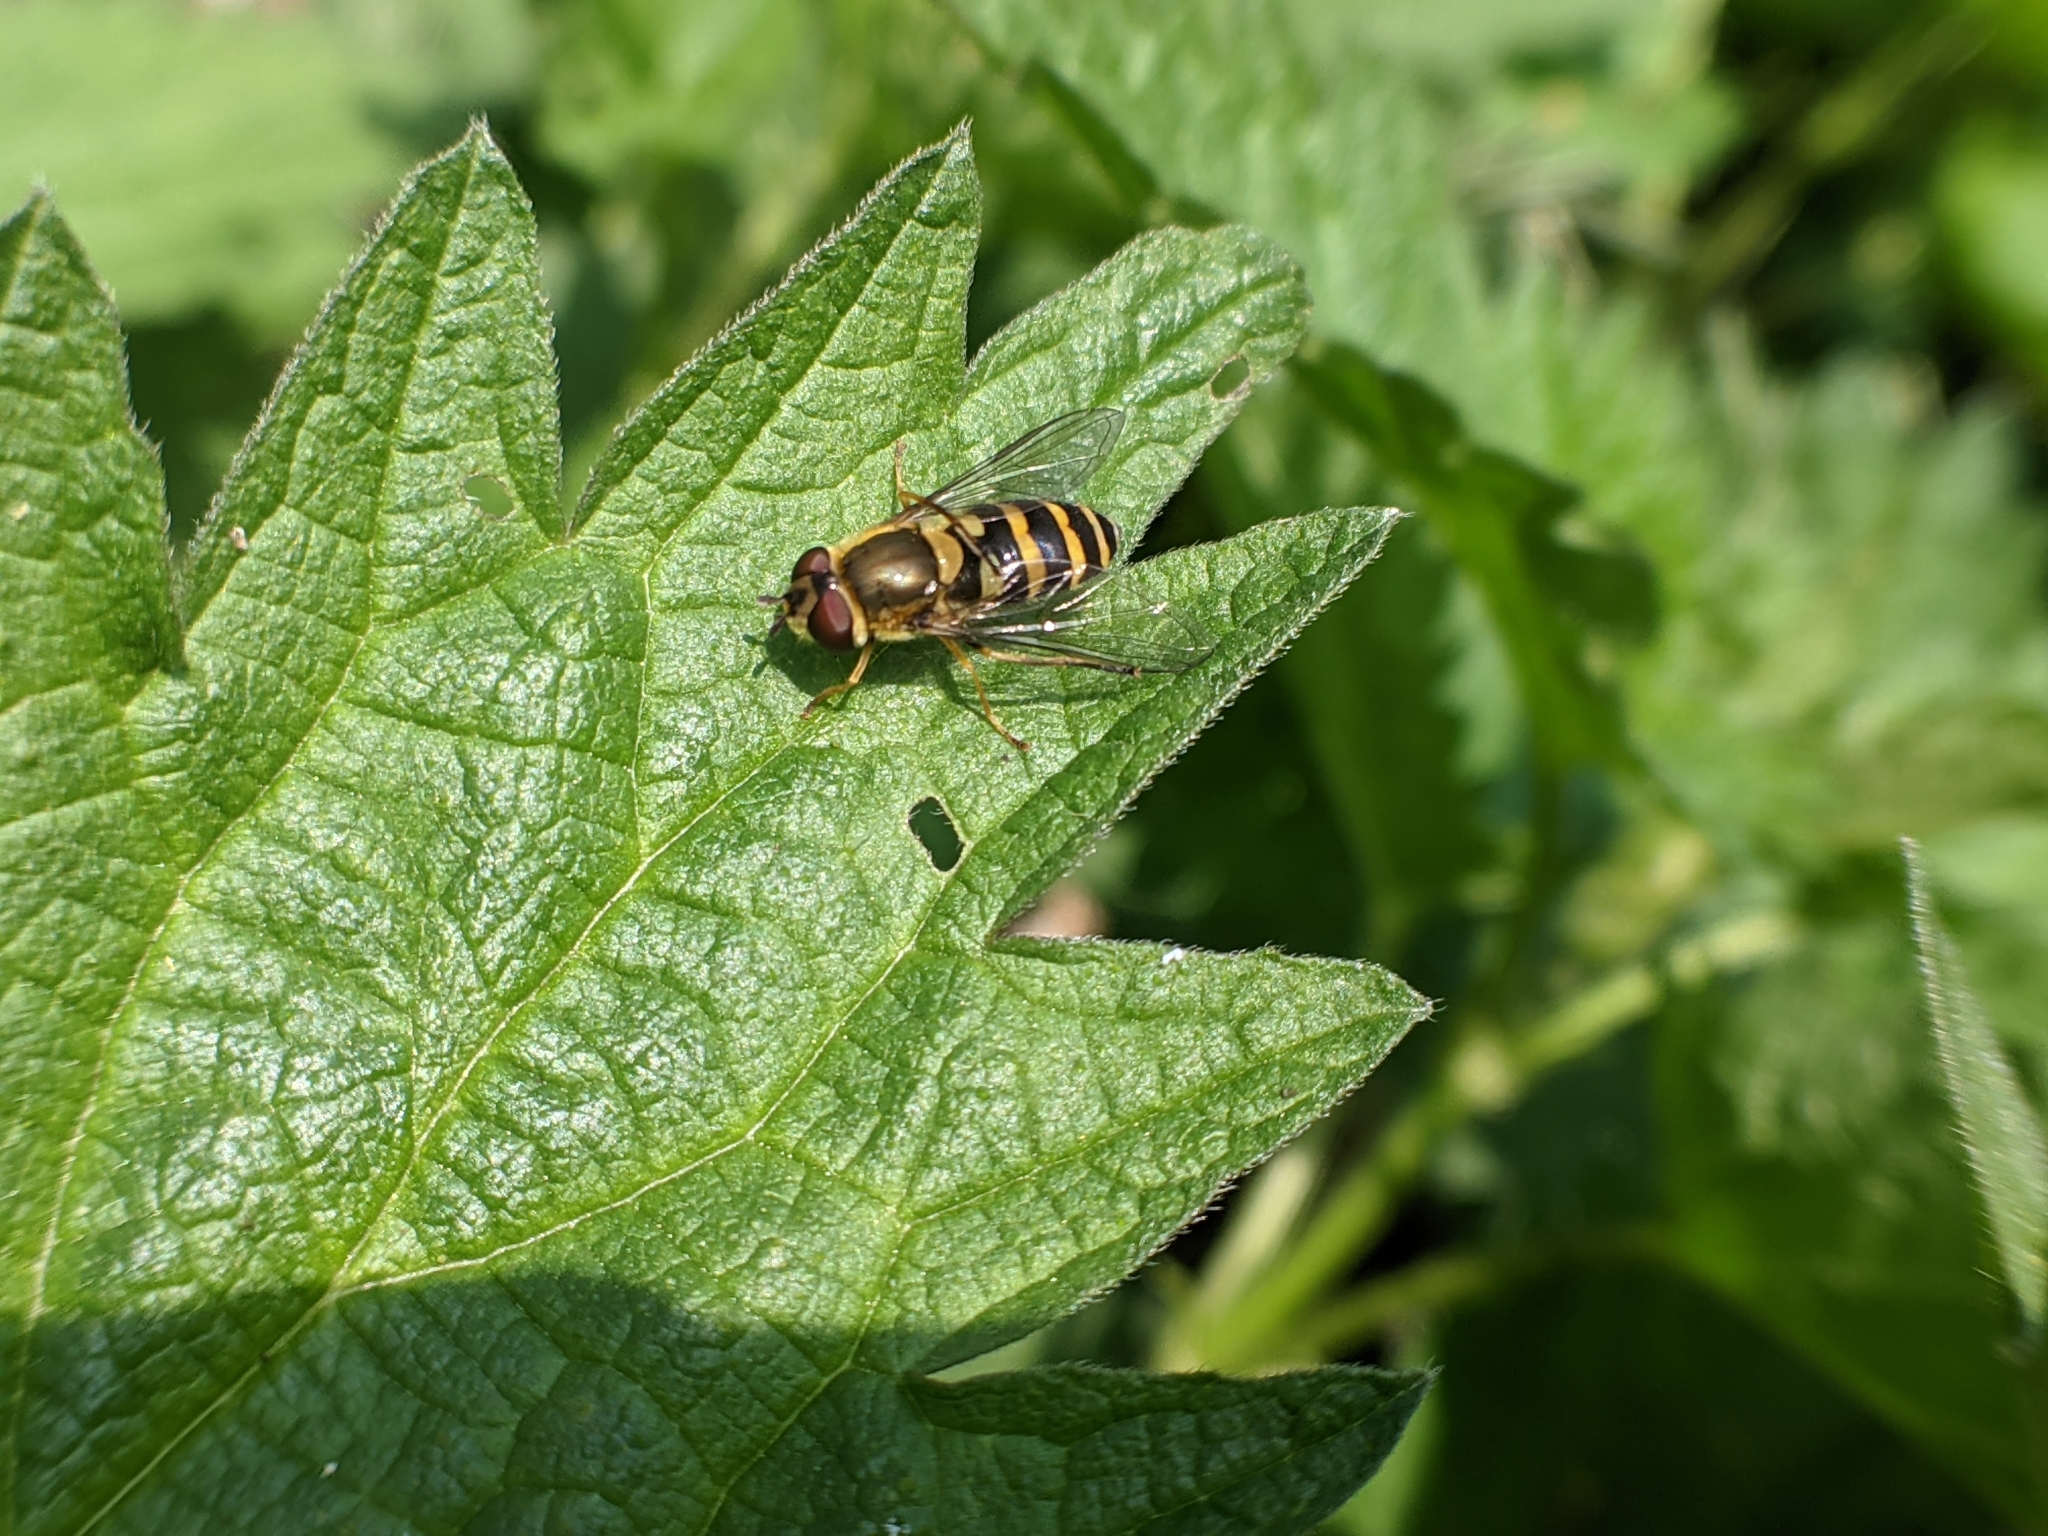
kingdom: Animalia
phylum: Arthropoda
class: Insecta
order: Diptera
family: Syrphidae
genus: Syrphus
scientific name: Syrphus
